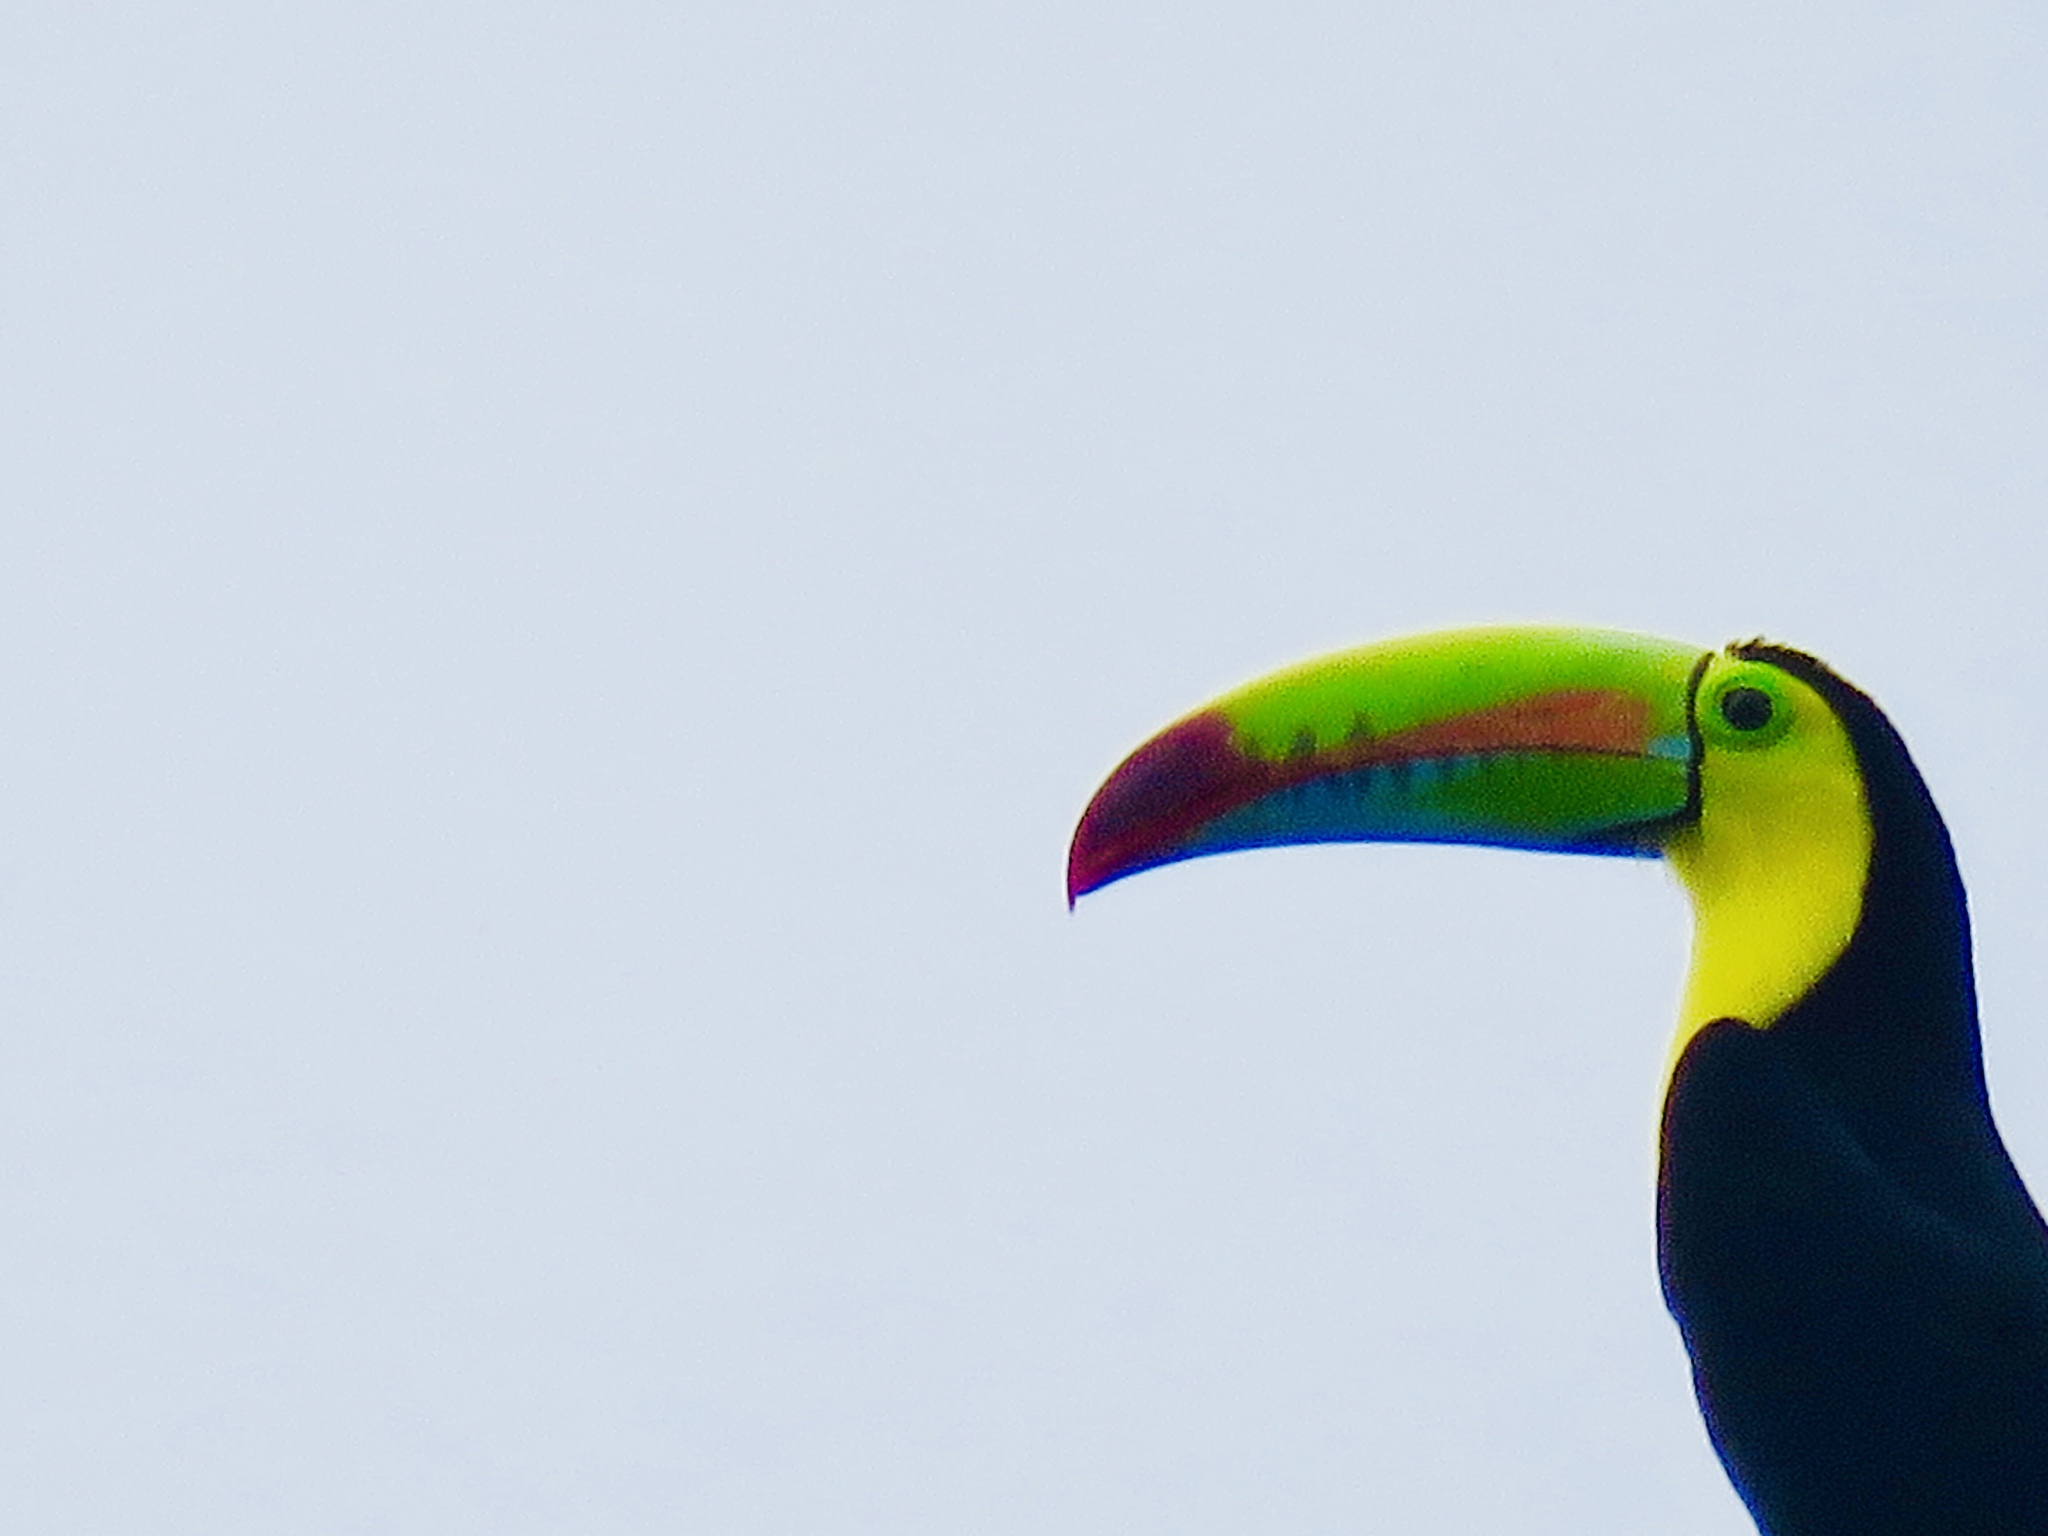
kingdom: Animalia
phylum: Chordata
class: Aves
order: Piciformes
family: Ramphastidae
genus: Ramphastos
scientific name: Ramphastos sulfuratus
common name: Keel-billed toucan
